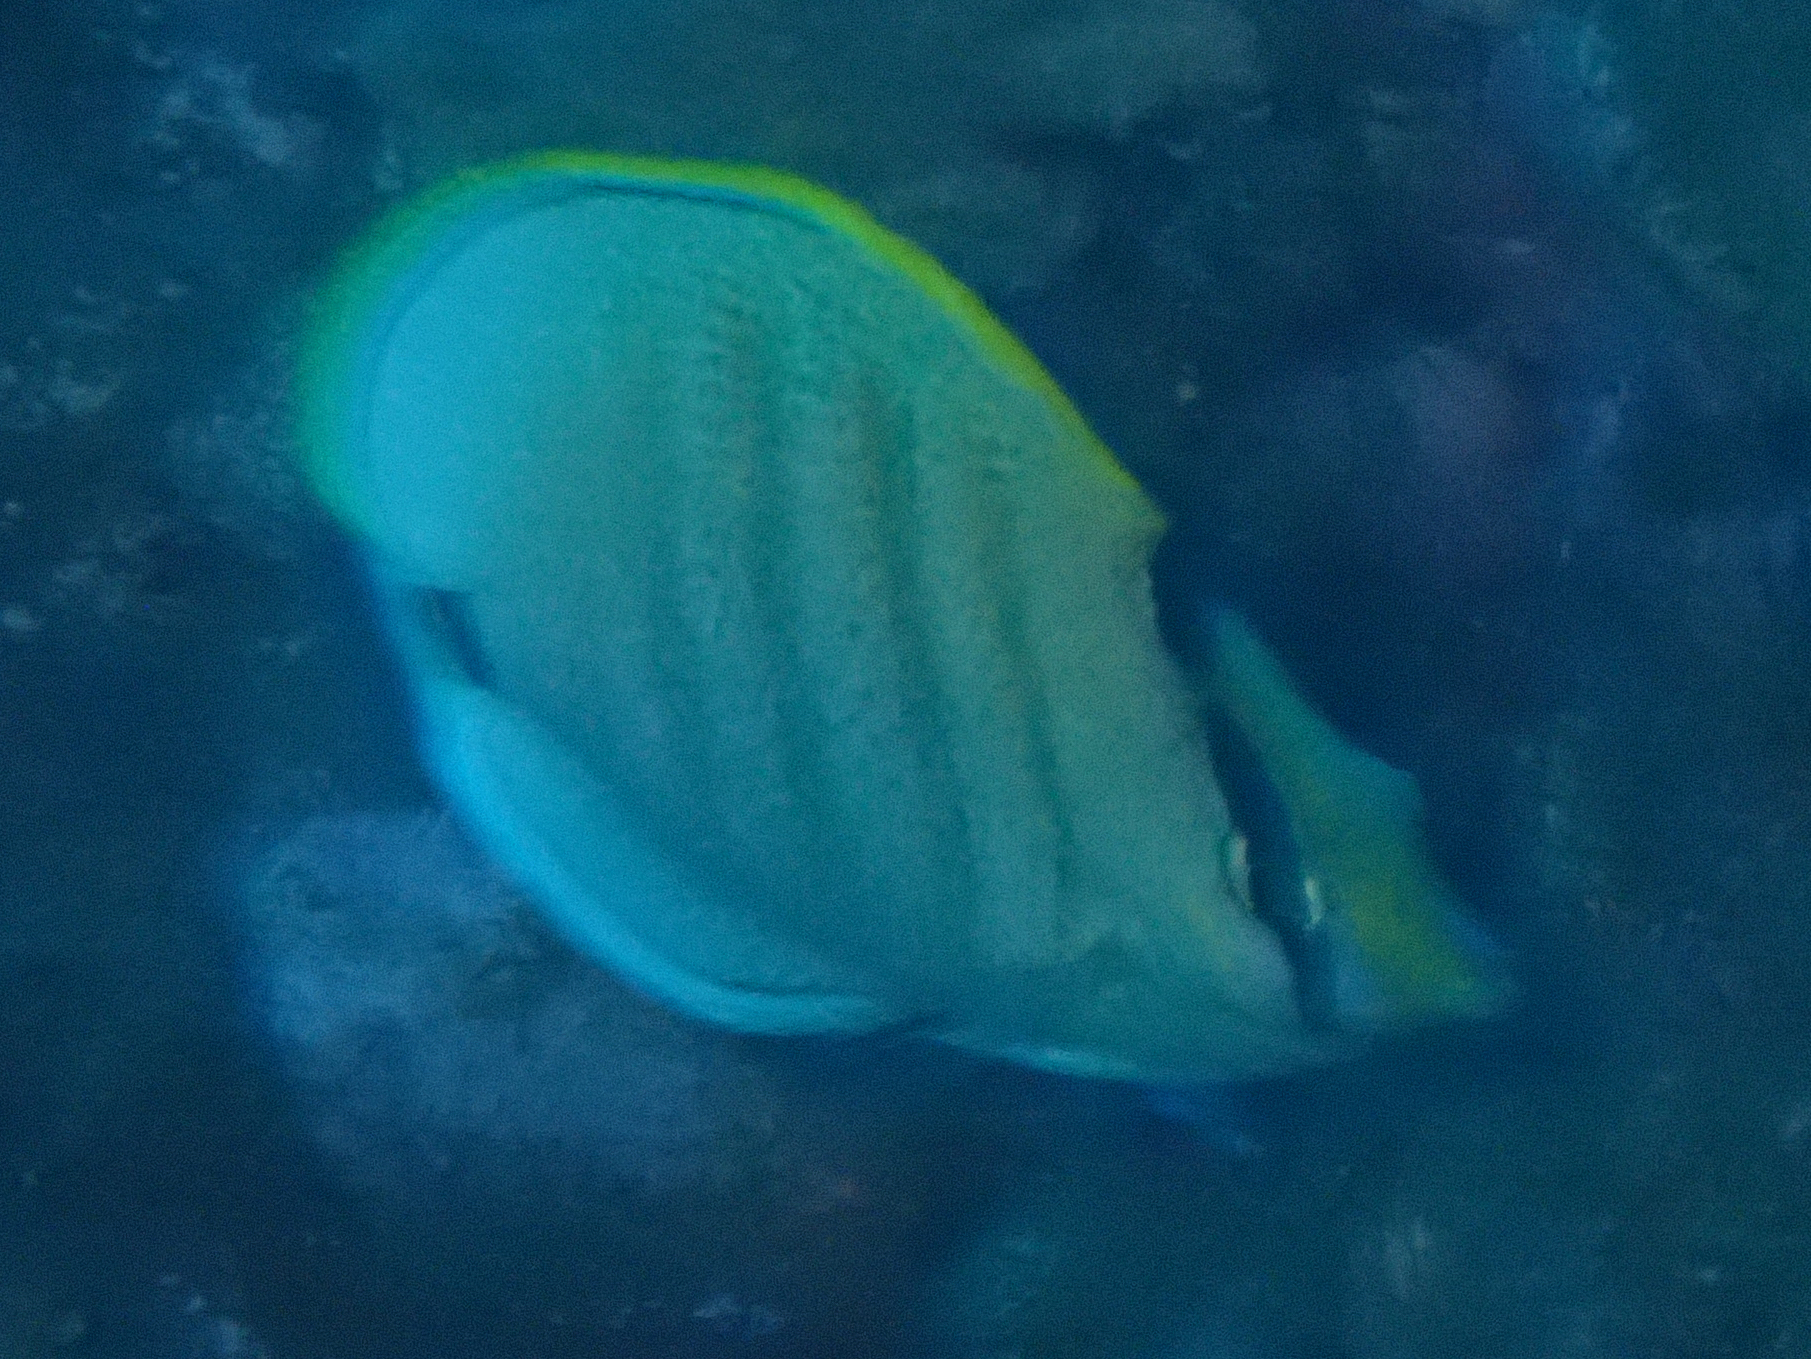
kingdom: Animalia
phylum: Chordata
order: Perciformes
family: Chaetodontidae
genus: Chaetodon
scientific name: Chaetodon multicinctus
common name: Multiband butterflyfish
